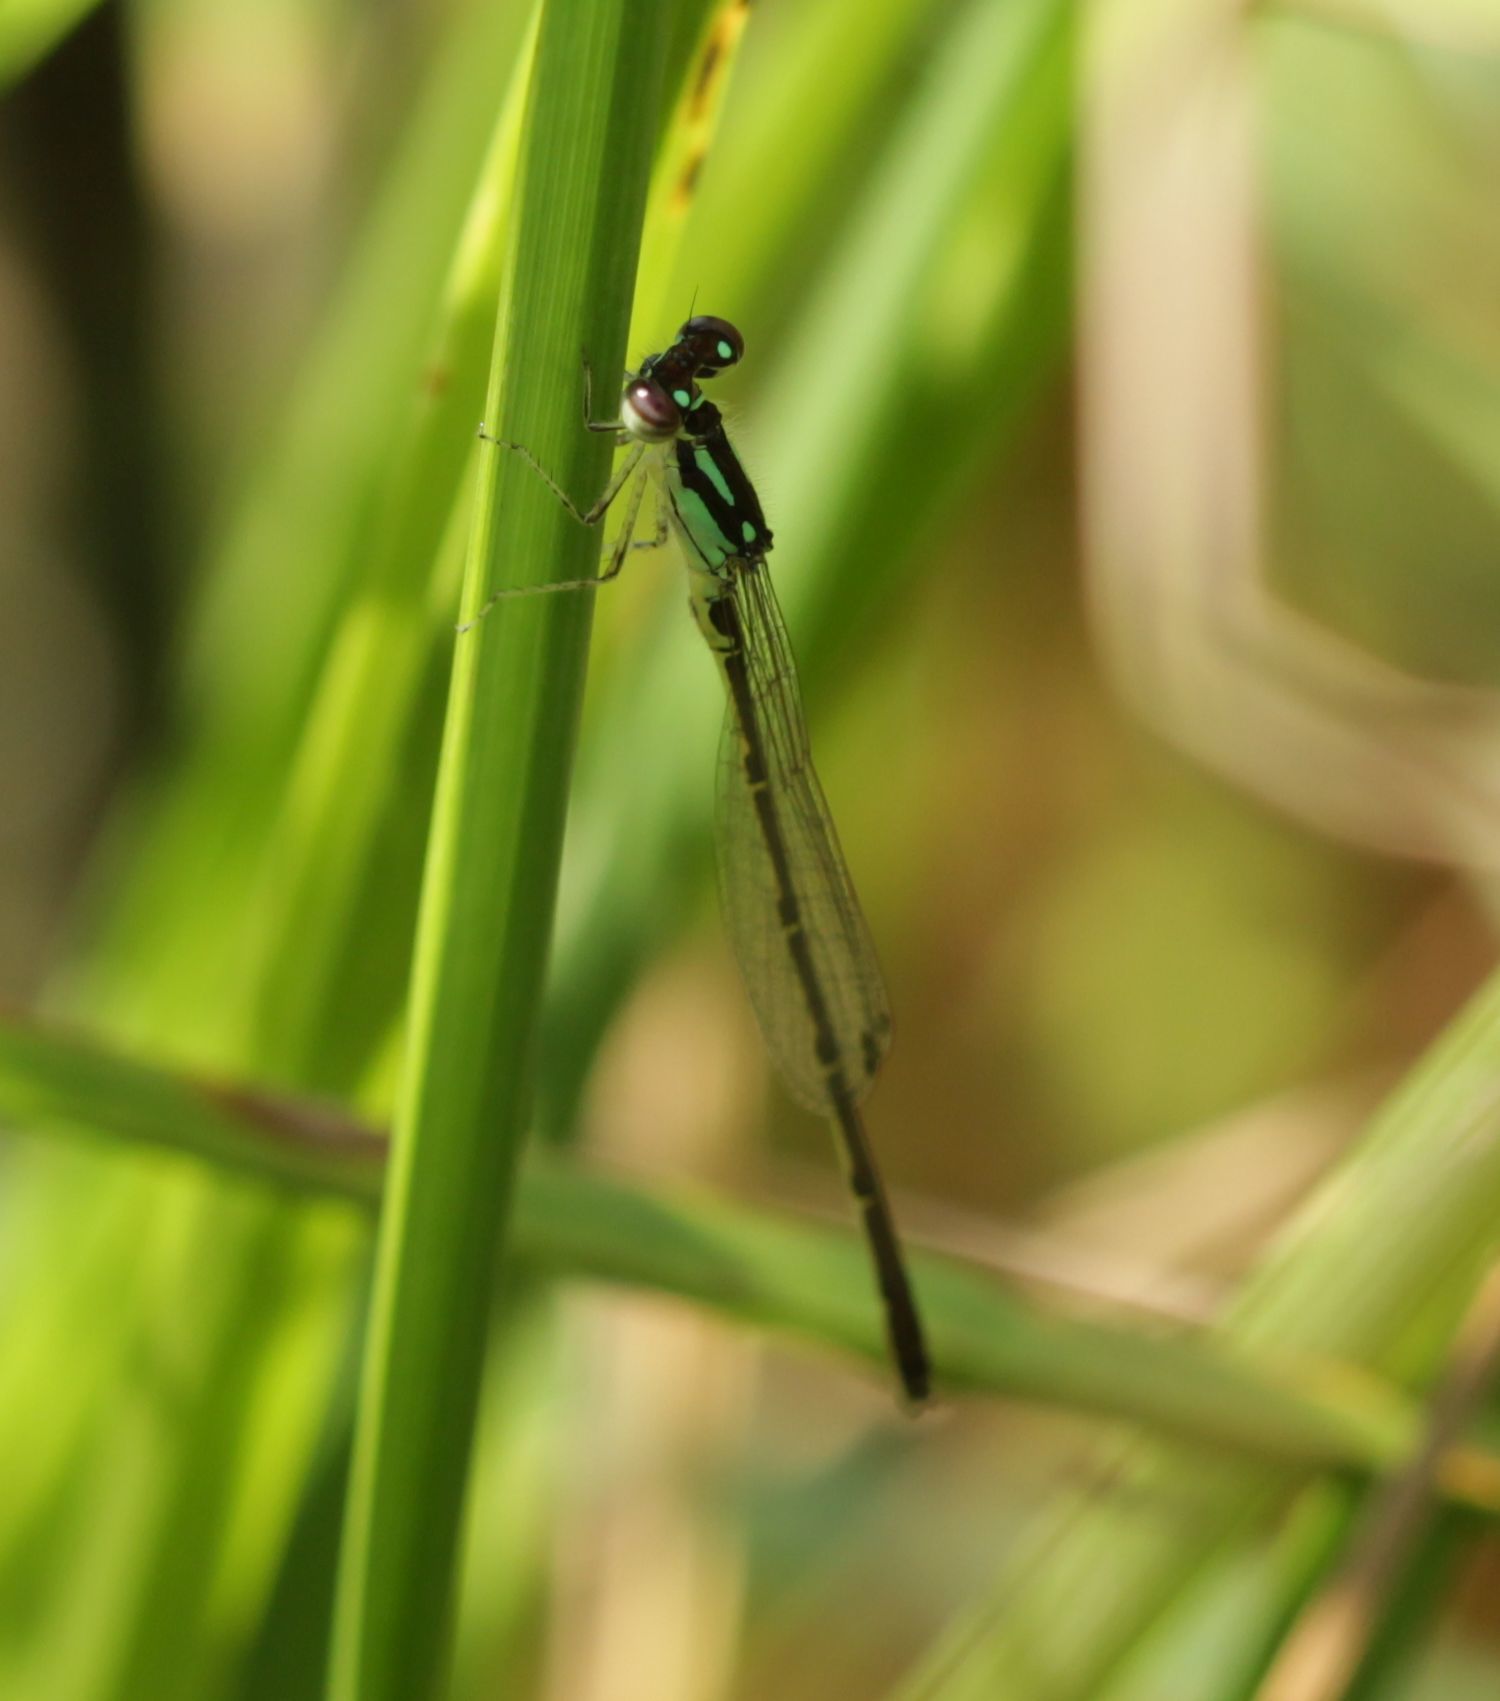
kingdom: Animalia
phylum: Arthropoda
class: Insecta
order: Odonata
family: Coenagrionidae
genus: Ischnura
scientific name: Ischnura posita
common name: Fragile forktail
